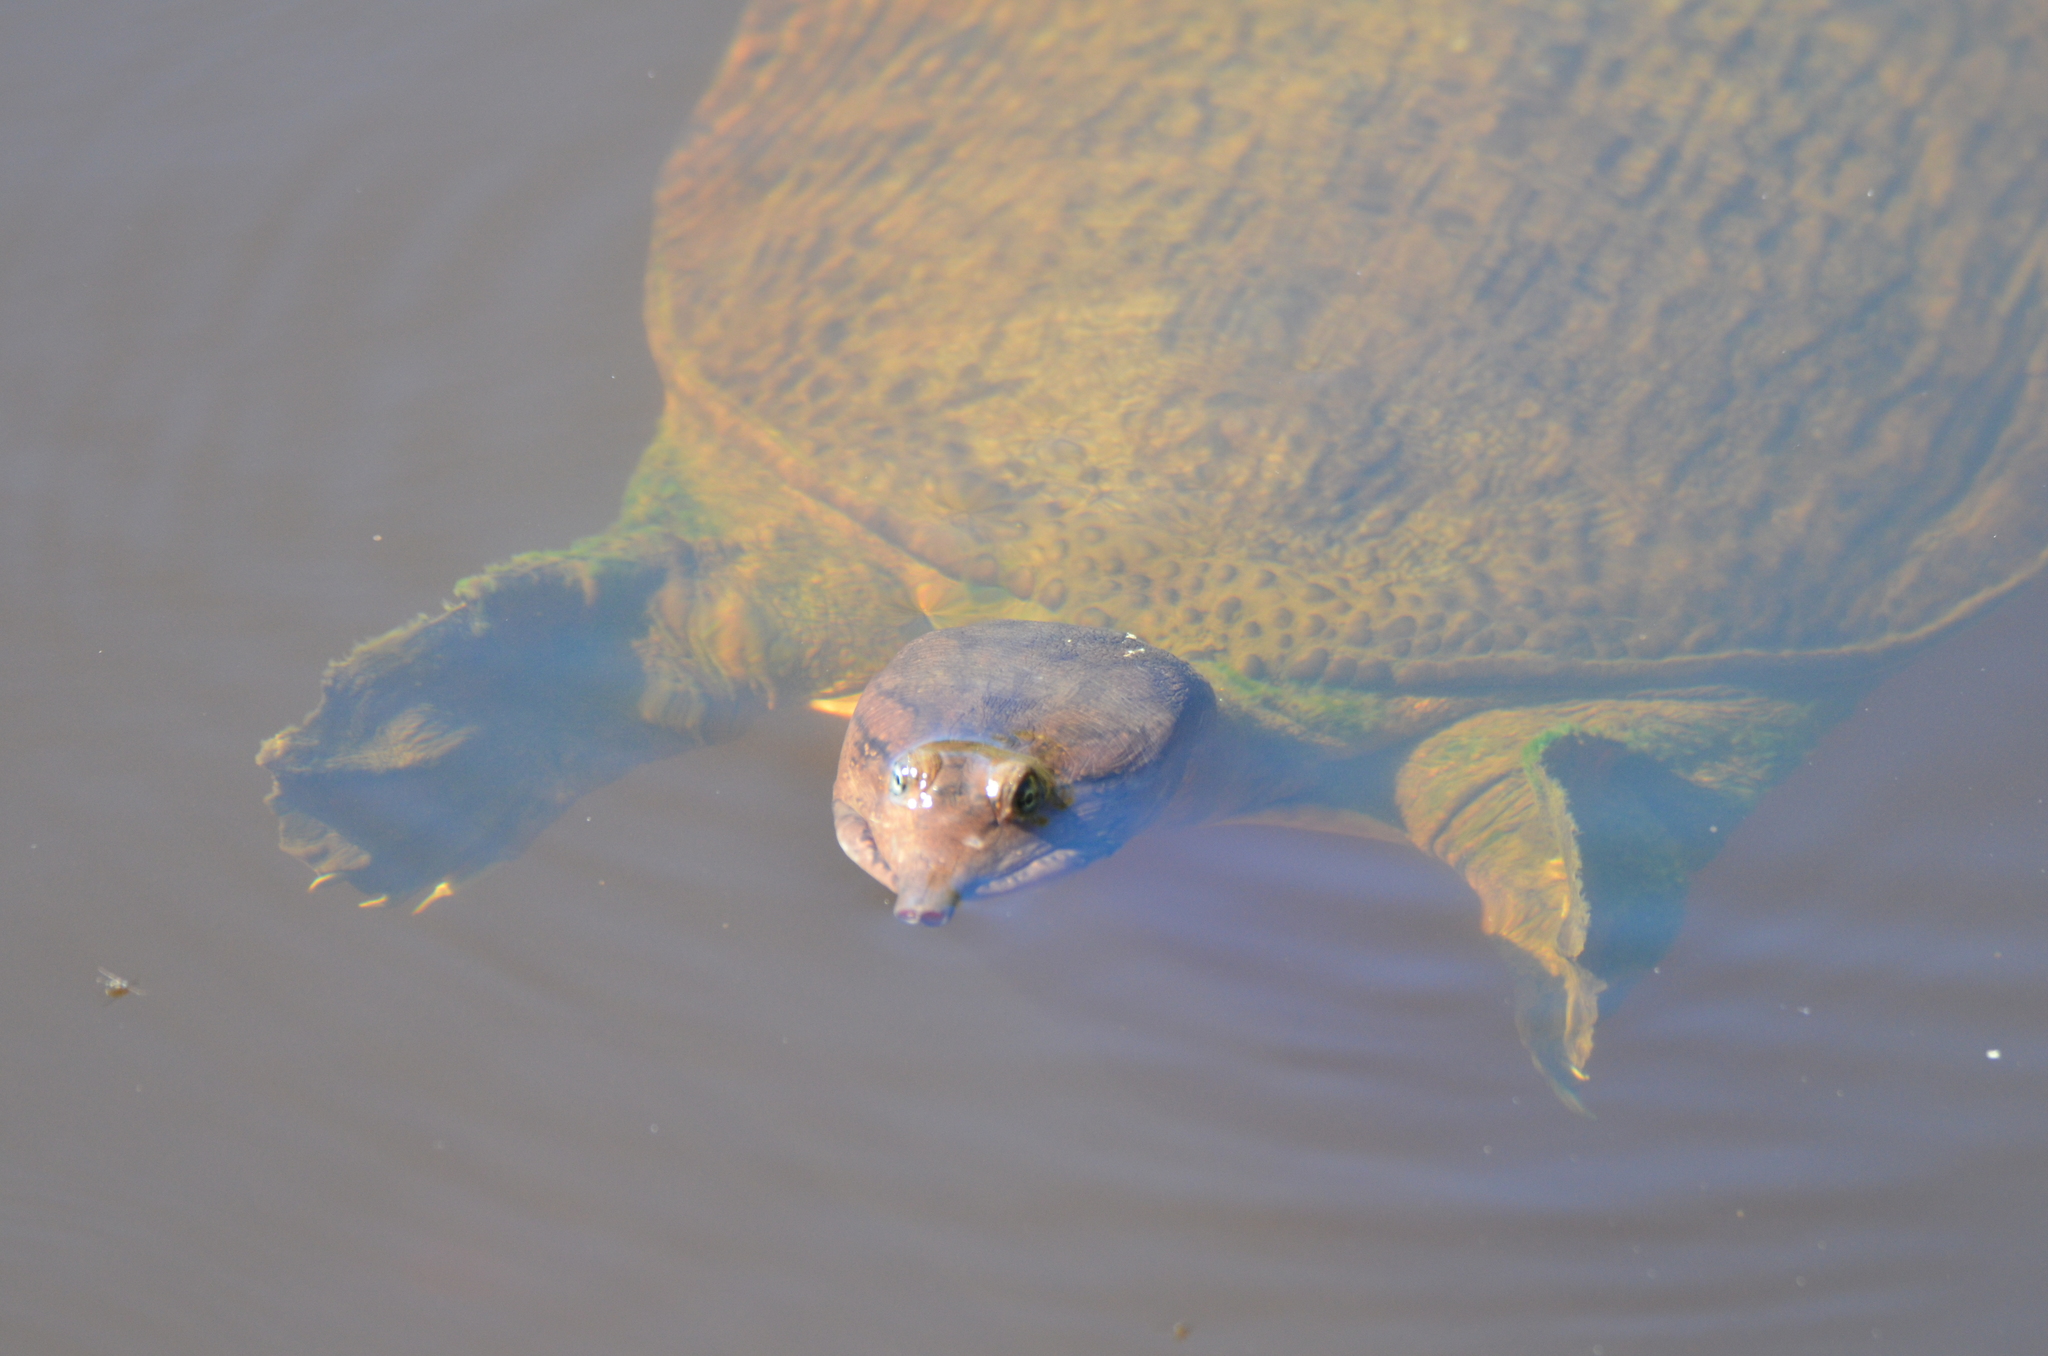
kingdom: Animalia
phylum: Chordata
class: Testudines
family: Trionychidae
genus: Apalone
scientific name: Apalone ferox
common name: Florida softshell turtle
